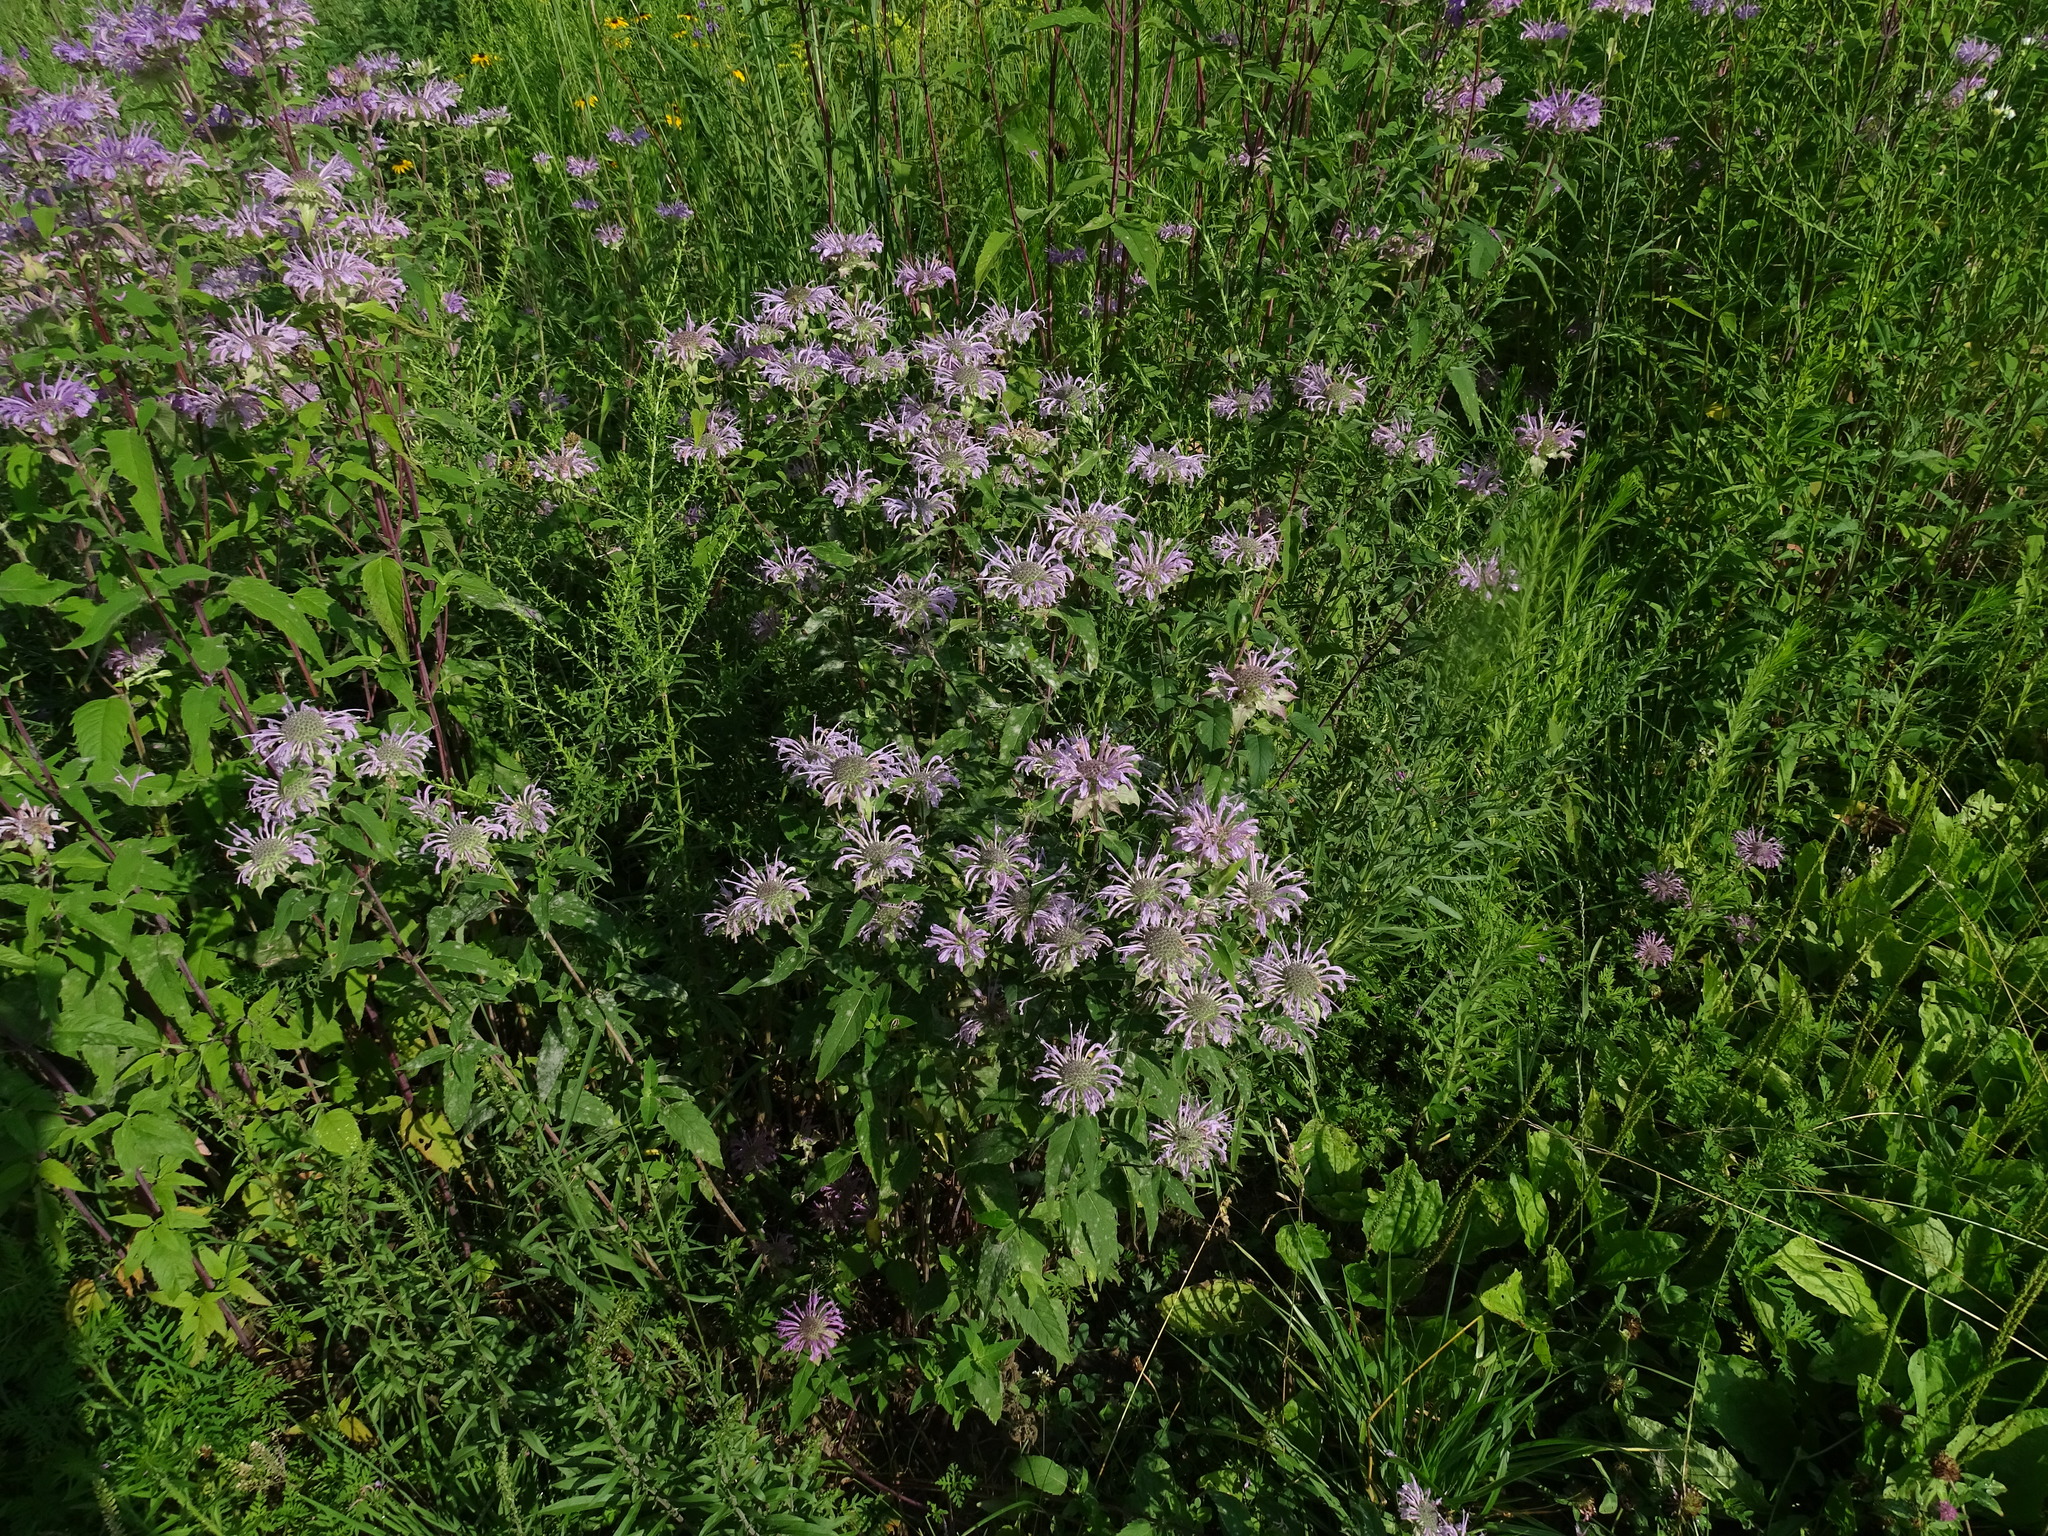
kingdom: Plantae
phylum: Tracheophyta
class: Magnoliopsida
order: Lamiales
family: Lamiaceae
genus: Monarda
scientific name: Monarda fistulosa
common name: Purple beebalm
